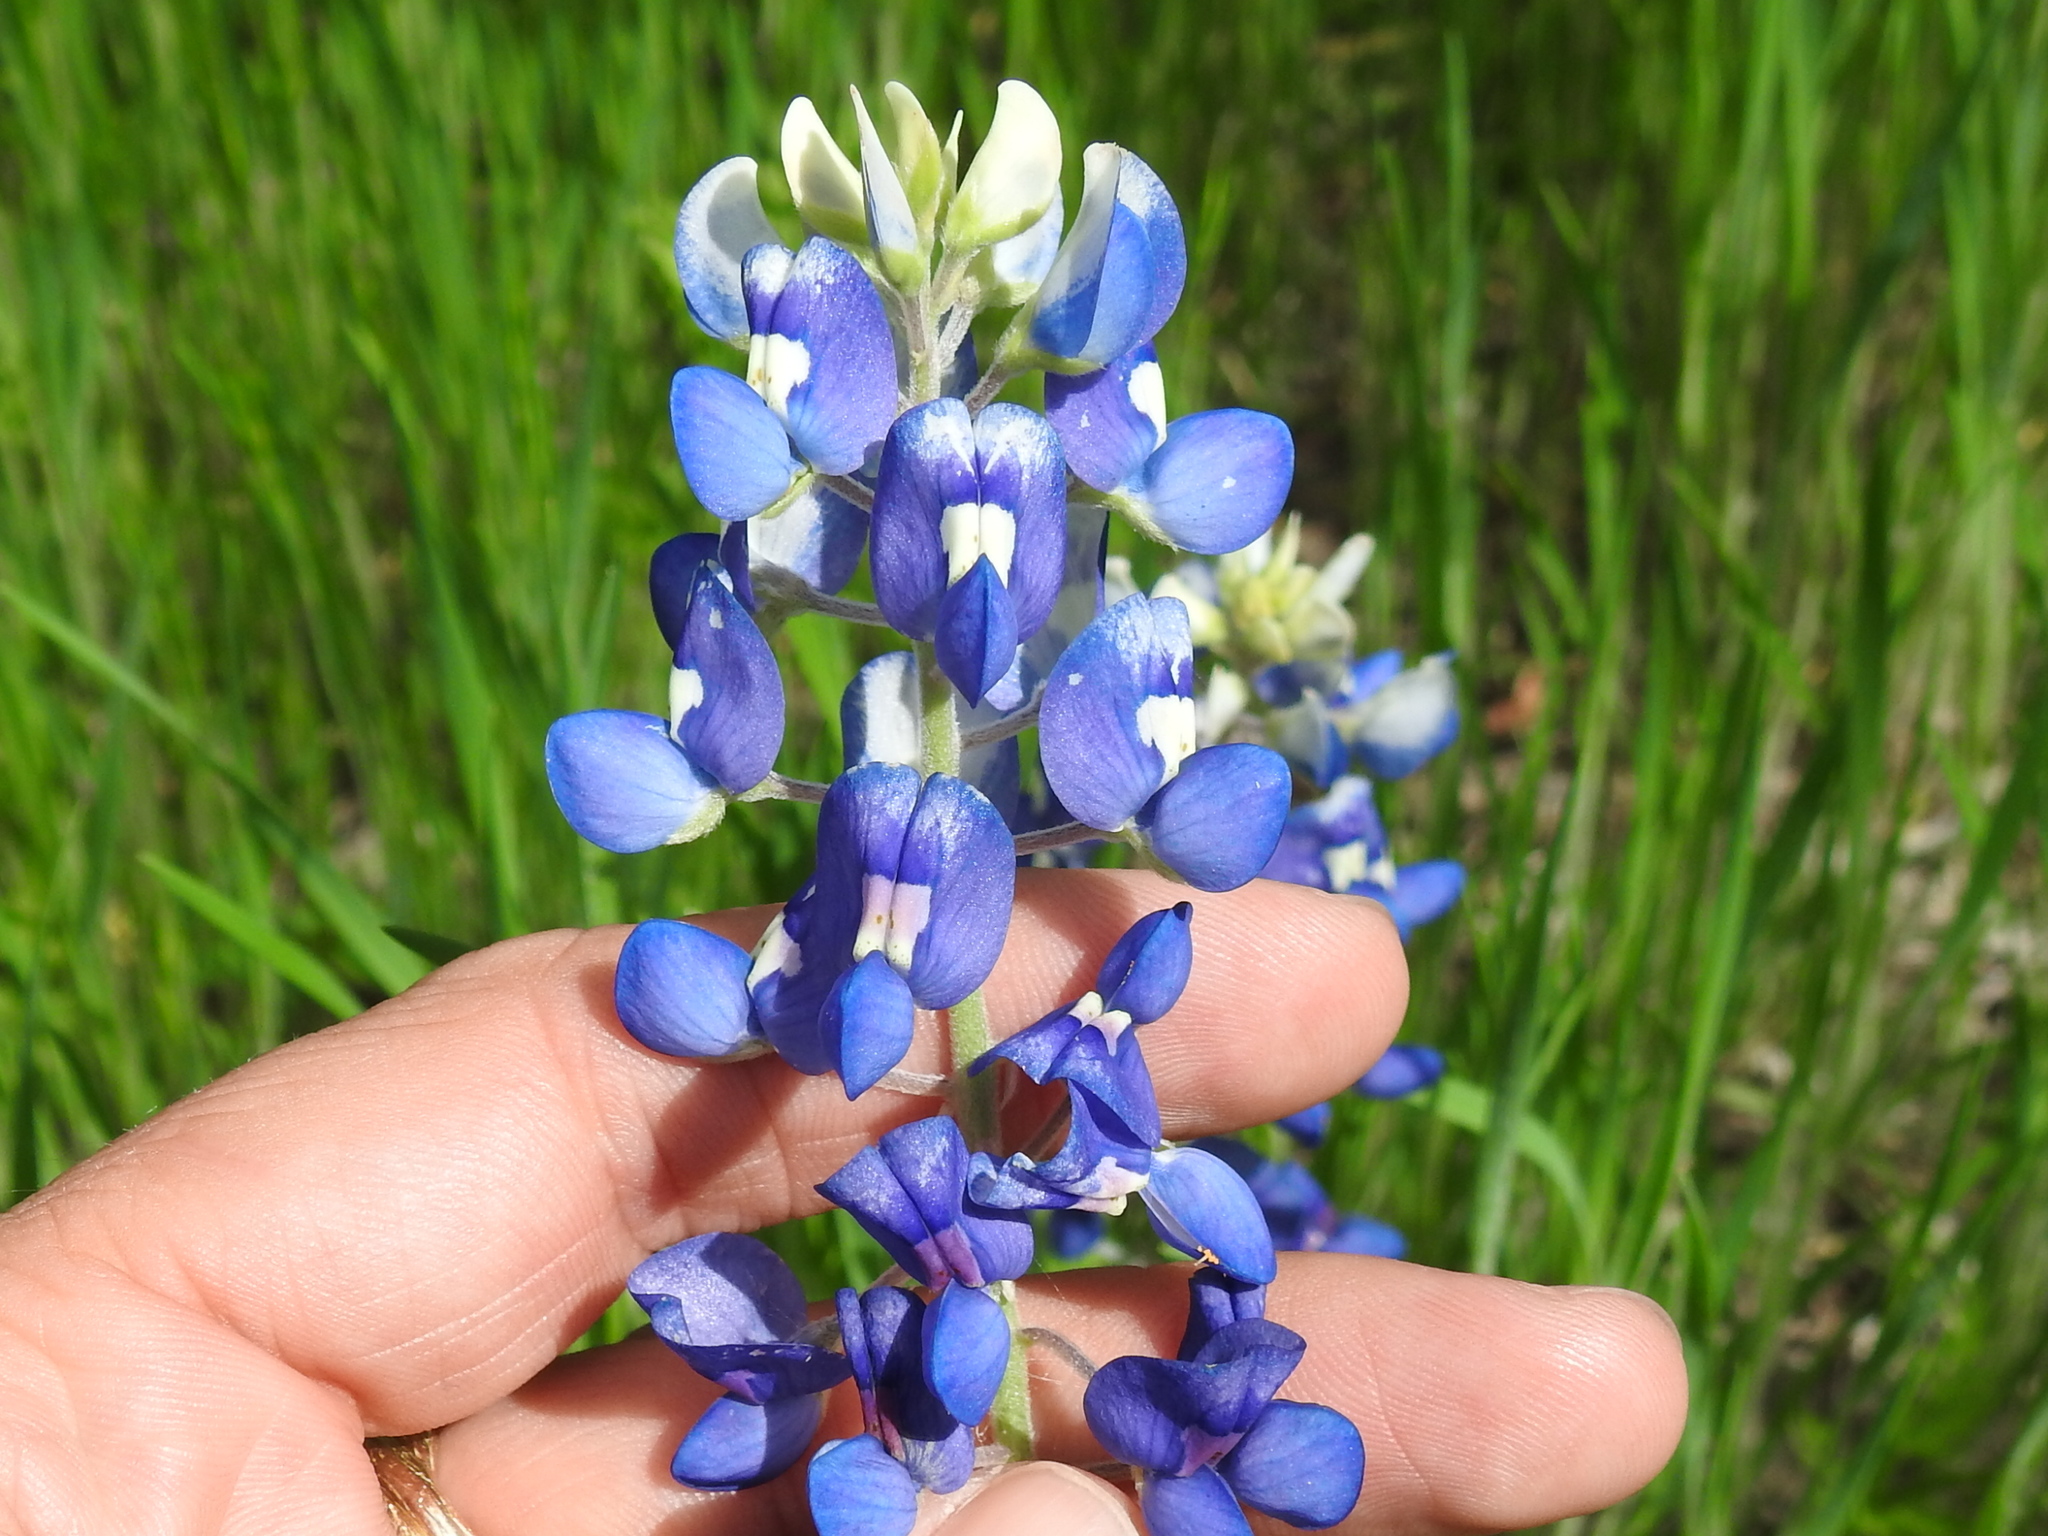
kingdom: Plantae
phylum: Tracheophyta
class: Magnoliopsida
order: Fabales
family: Fabaceae
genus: Lupinus
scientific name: Lupinus texensis
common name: Texas bluebonnet
